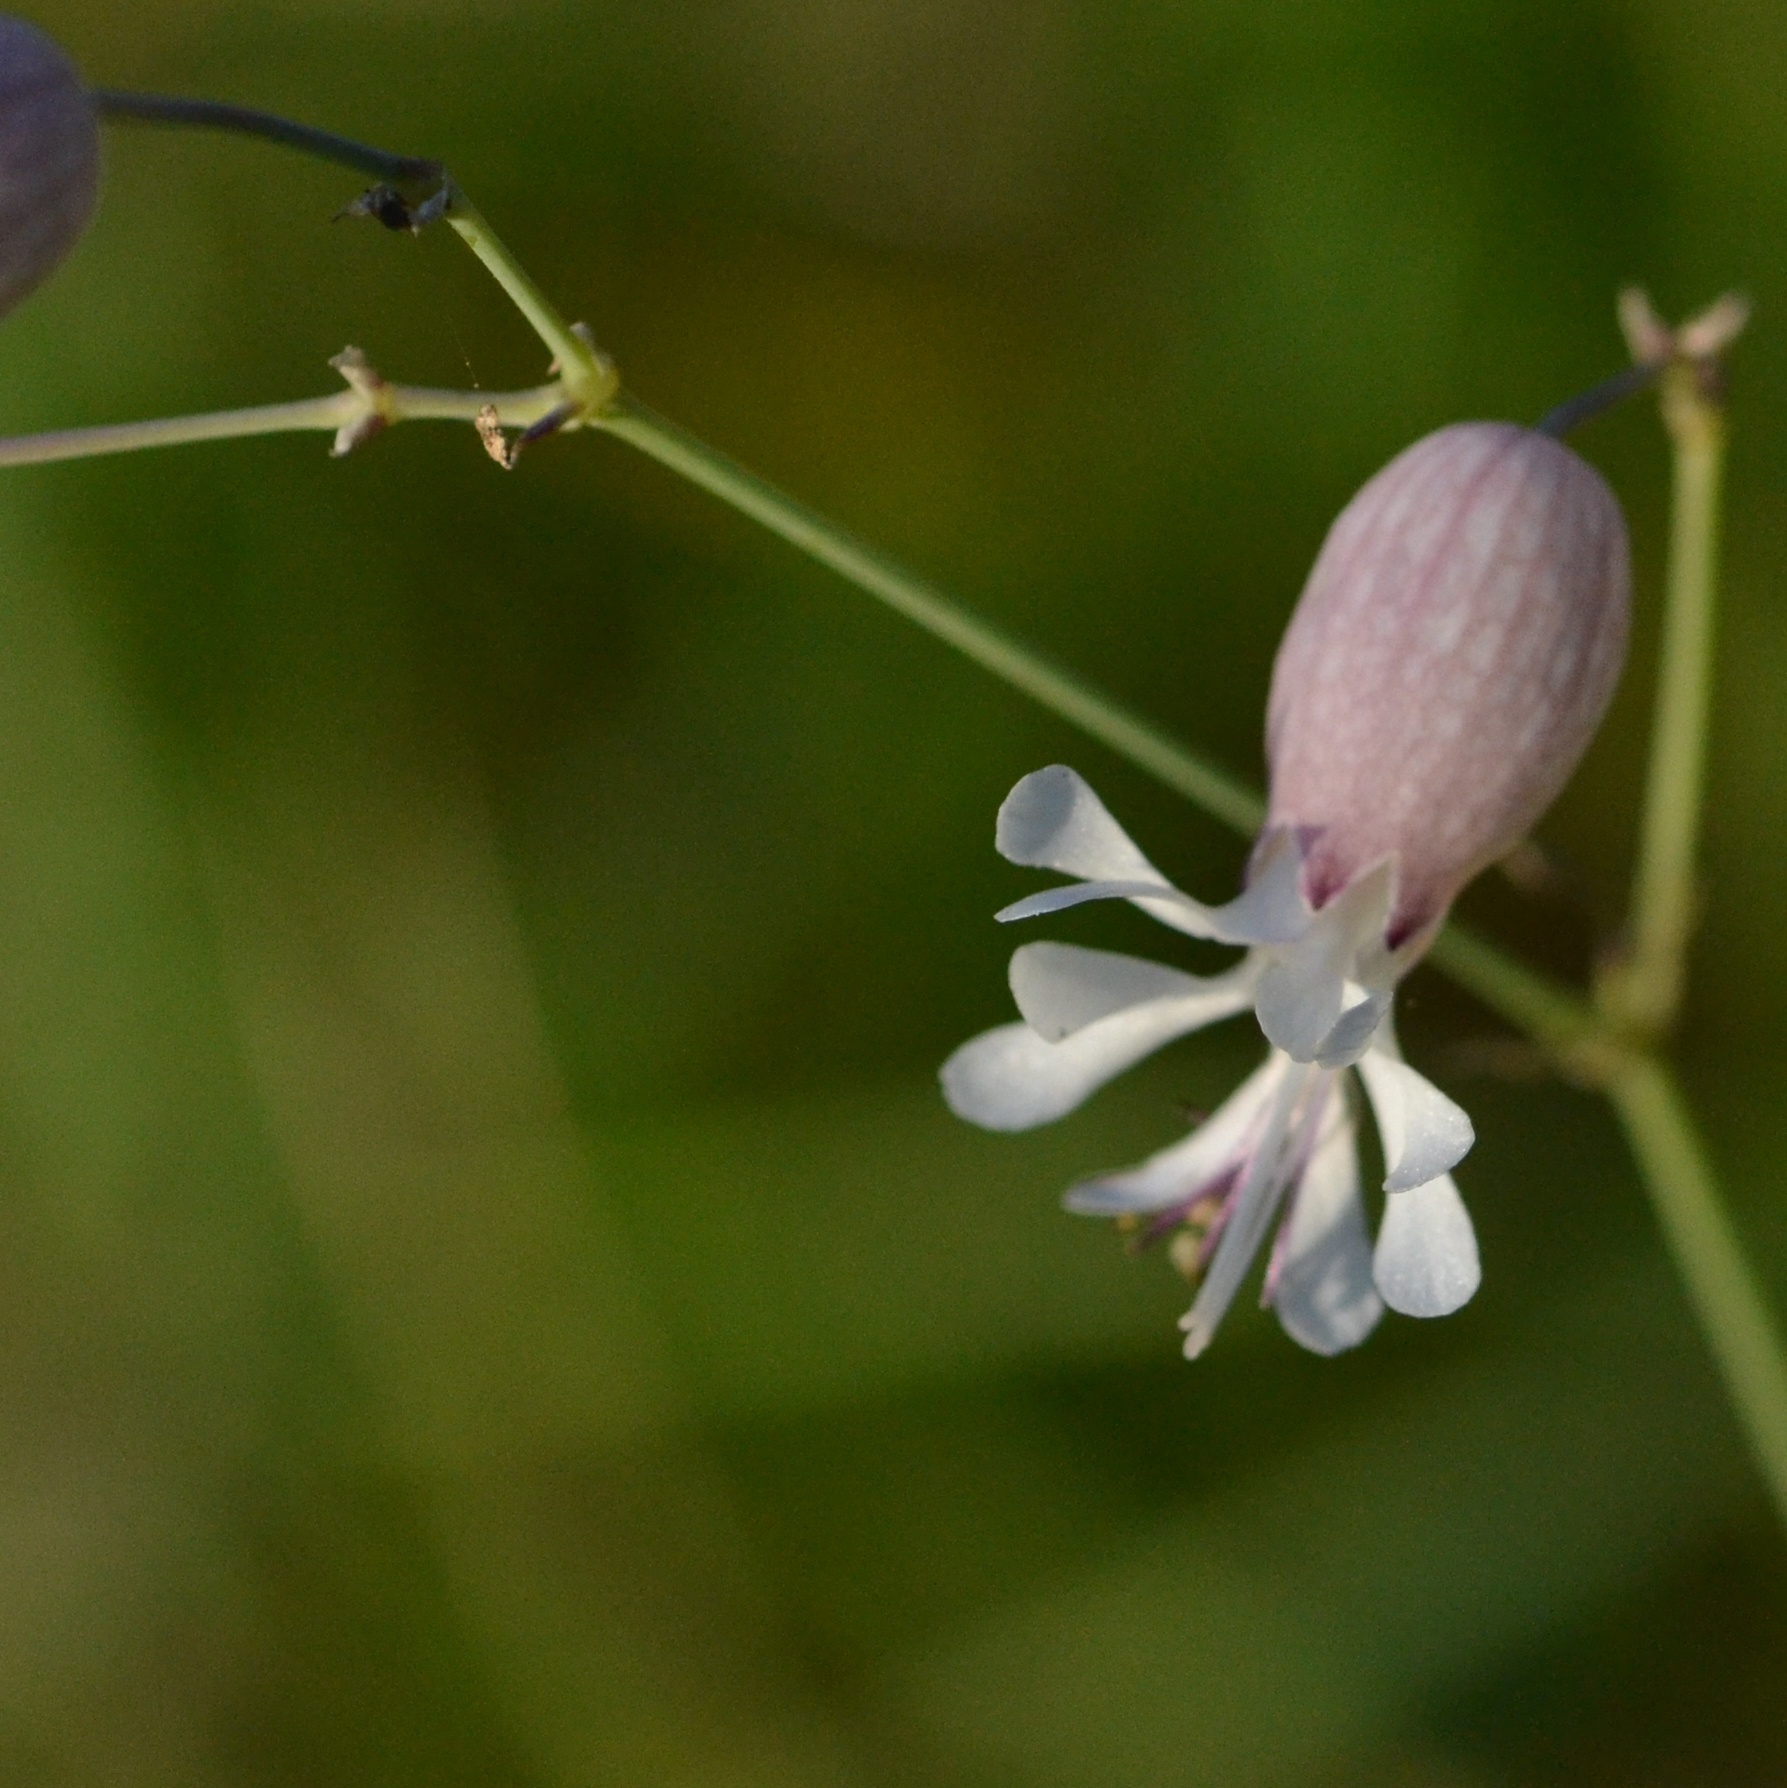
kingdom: Plantae
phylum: Tracheophyta
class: Magnoliopsida
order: Caryophyllales
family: Caryophyllaceae
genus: Silene
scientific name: Silene vulgaris
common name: Bladder campion
